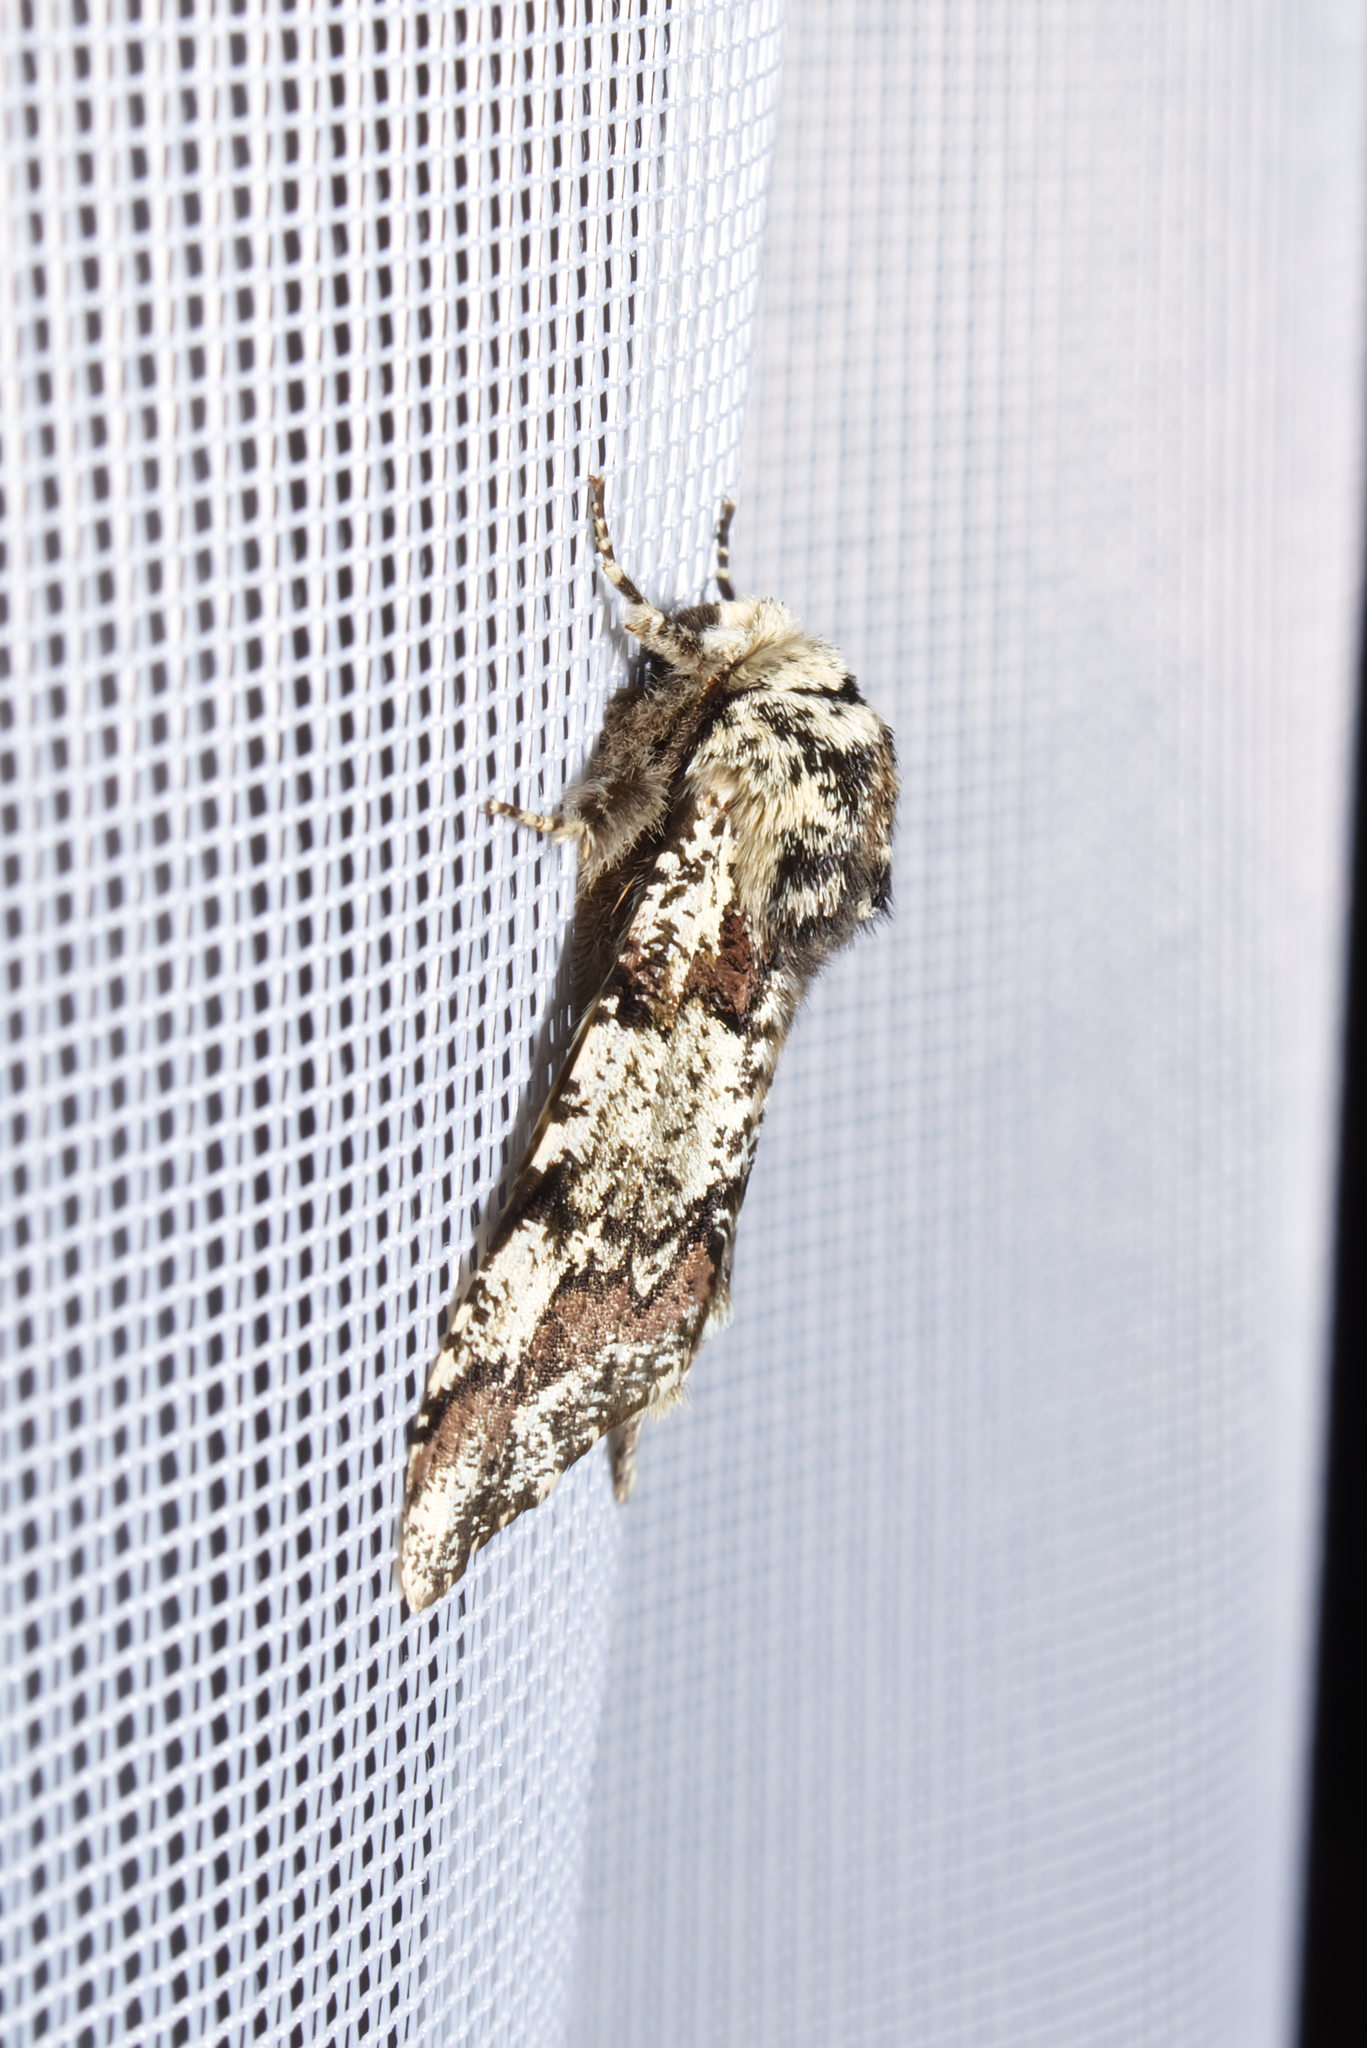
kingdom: Animalia
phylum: Arthropoda
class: Insecta
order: Lepidoptera
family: Geometridae
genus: Biston
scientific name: Biston strataria
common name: Oak beauty
